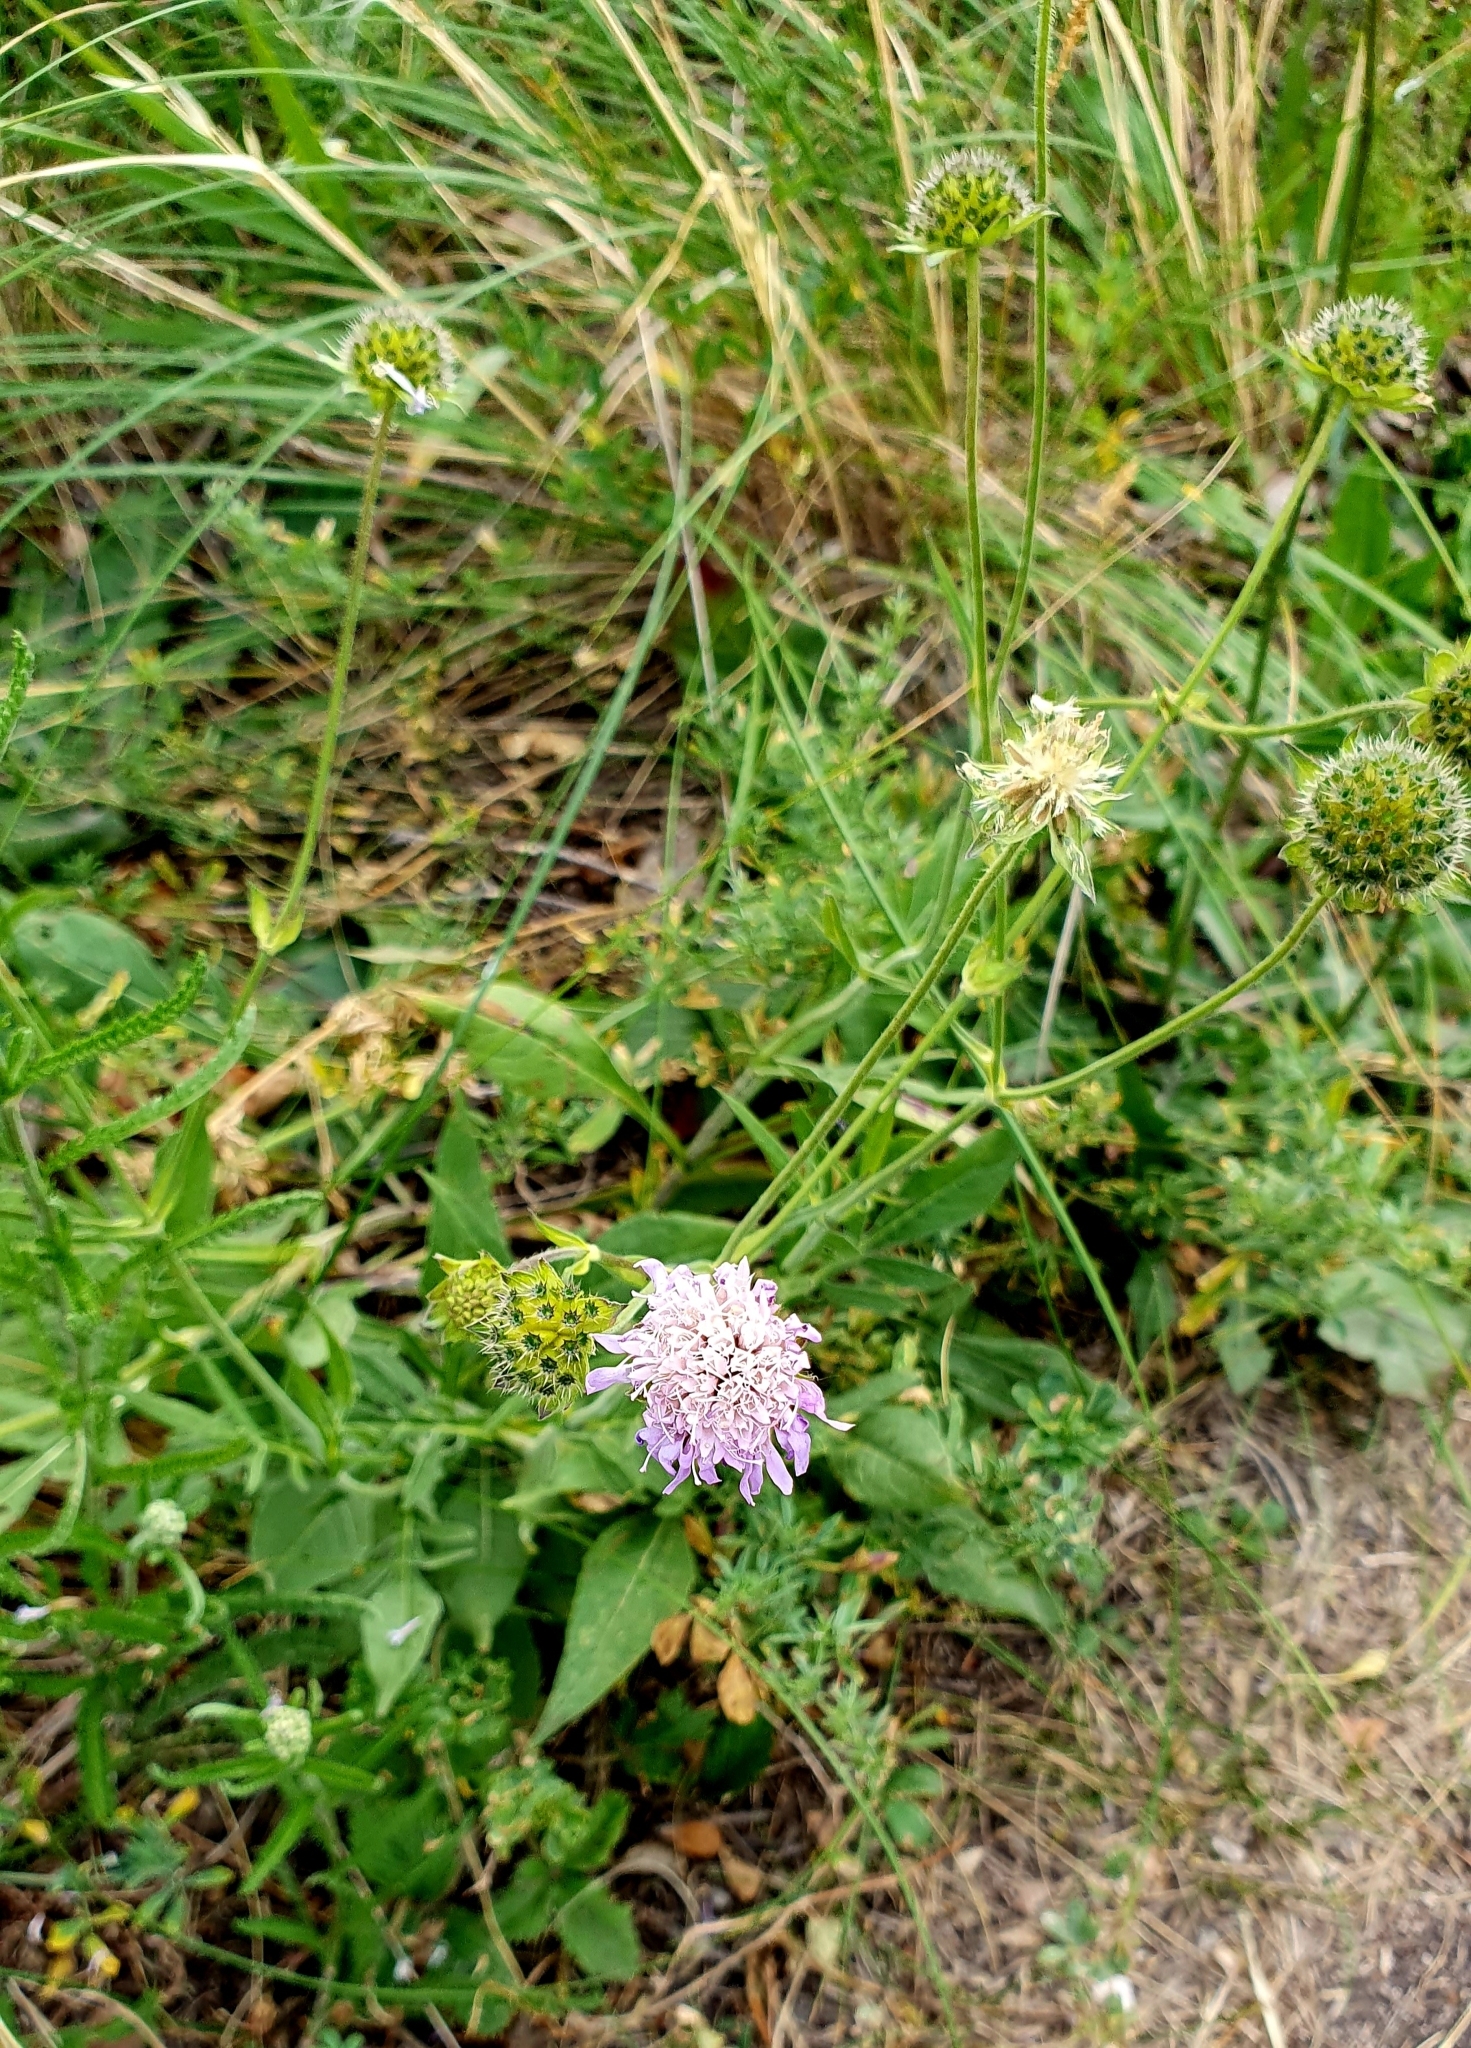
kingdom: Plantae
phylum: Tracheophyta
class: Magnoliopsida
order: Dipsacales
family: Caprifoliaceae
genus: Knautia
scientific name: Knautia arvensis
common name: Field scabiosa
